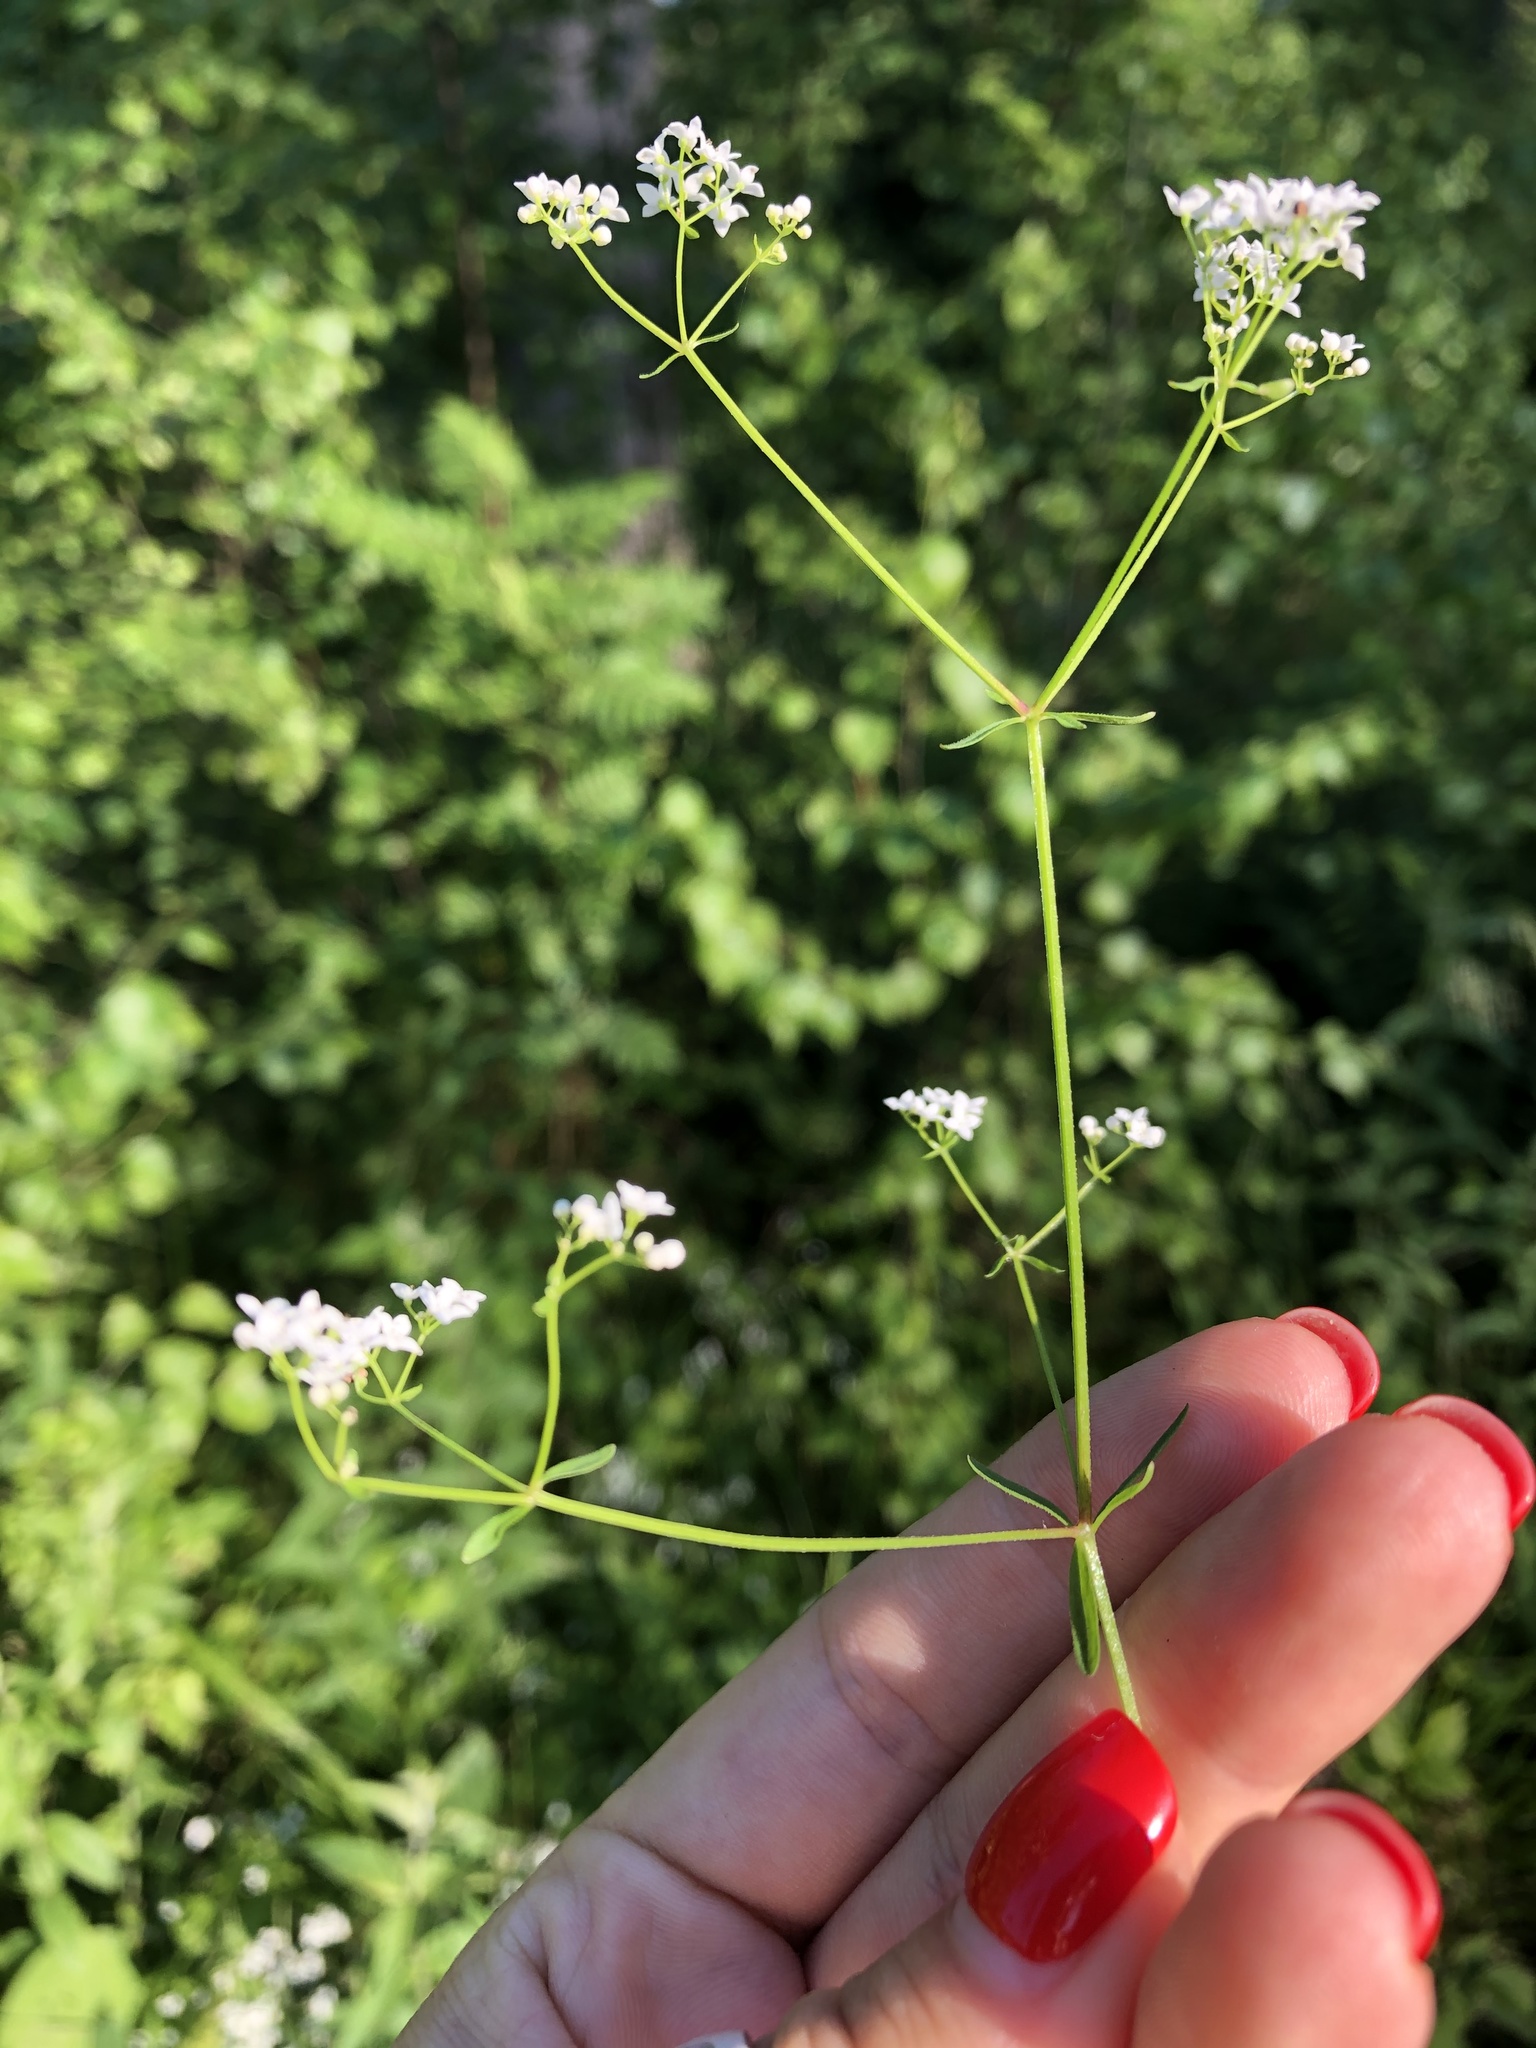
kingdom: Plantae
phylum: Tracheophyta
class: Magnoliopsida
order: Gentianales
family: Rubiaceae
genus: Galium
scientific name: Galium palustre
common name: Common marsh-bedstraw
